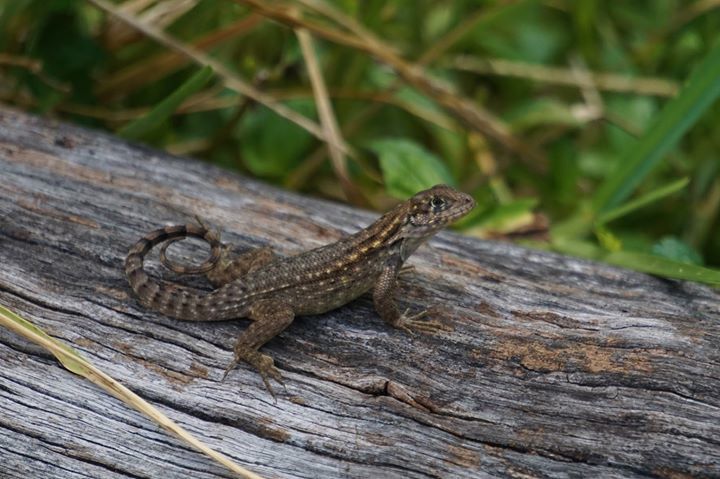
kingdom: Animalia
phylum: Chordata
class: Squamata
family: Leiocephalidae
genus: Leiocephalus
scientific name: Leiocephalus carinatus
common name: Northern curly-tailed lizard
